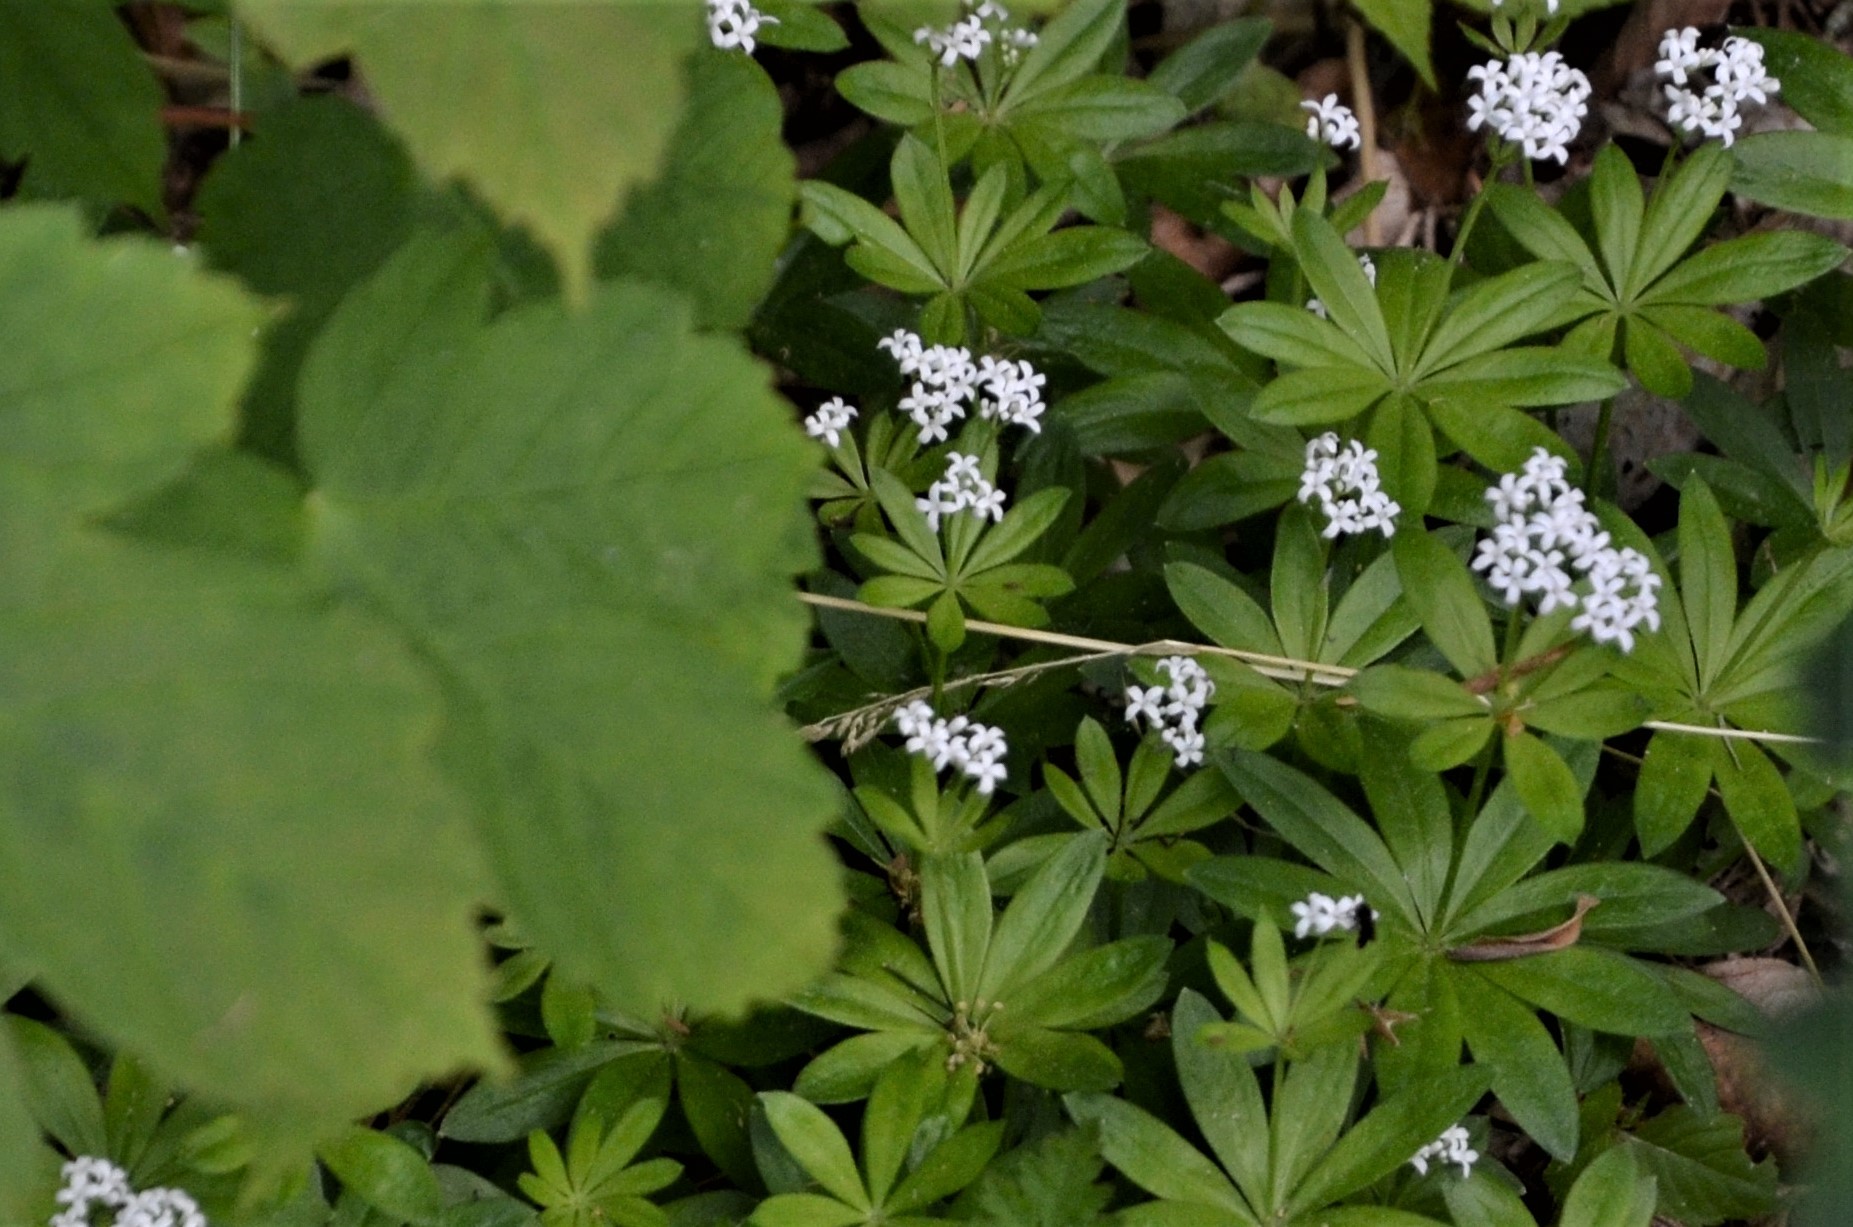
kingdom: Plantae
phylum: Tracheophyta
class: Magnoliopsida
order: Gentianales
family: Rubiaceae
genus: Galium
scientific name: Galium odoratum
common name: Sweet woodruff
